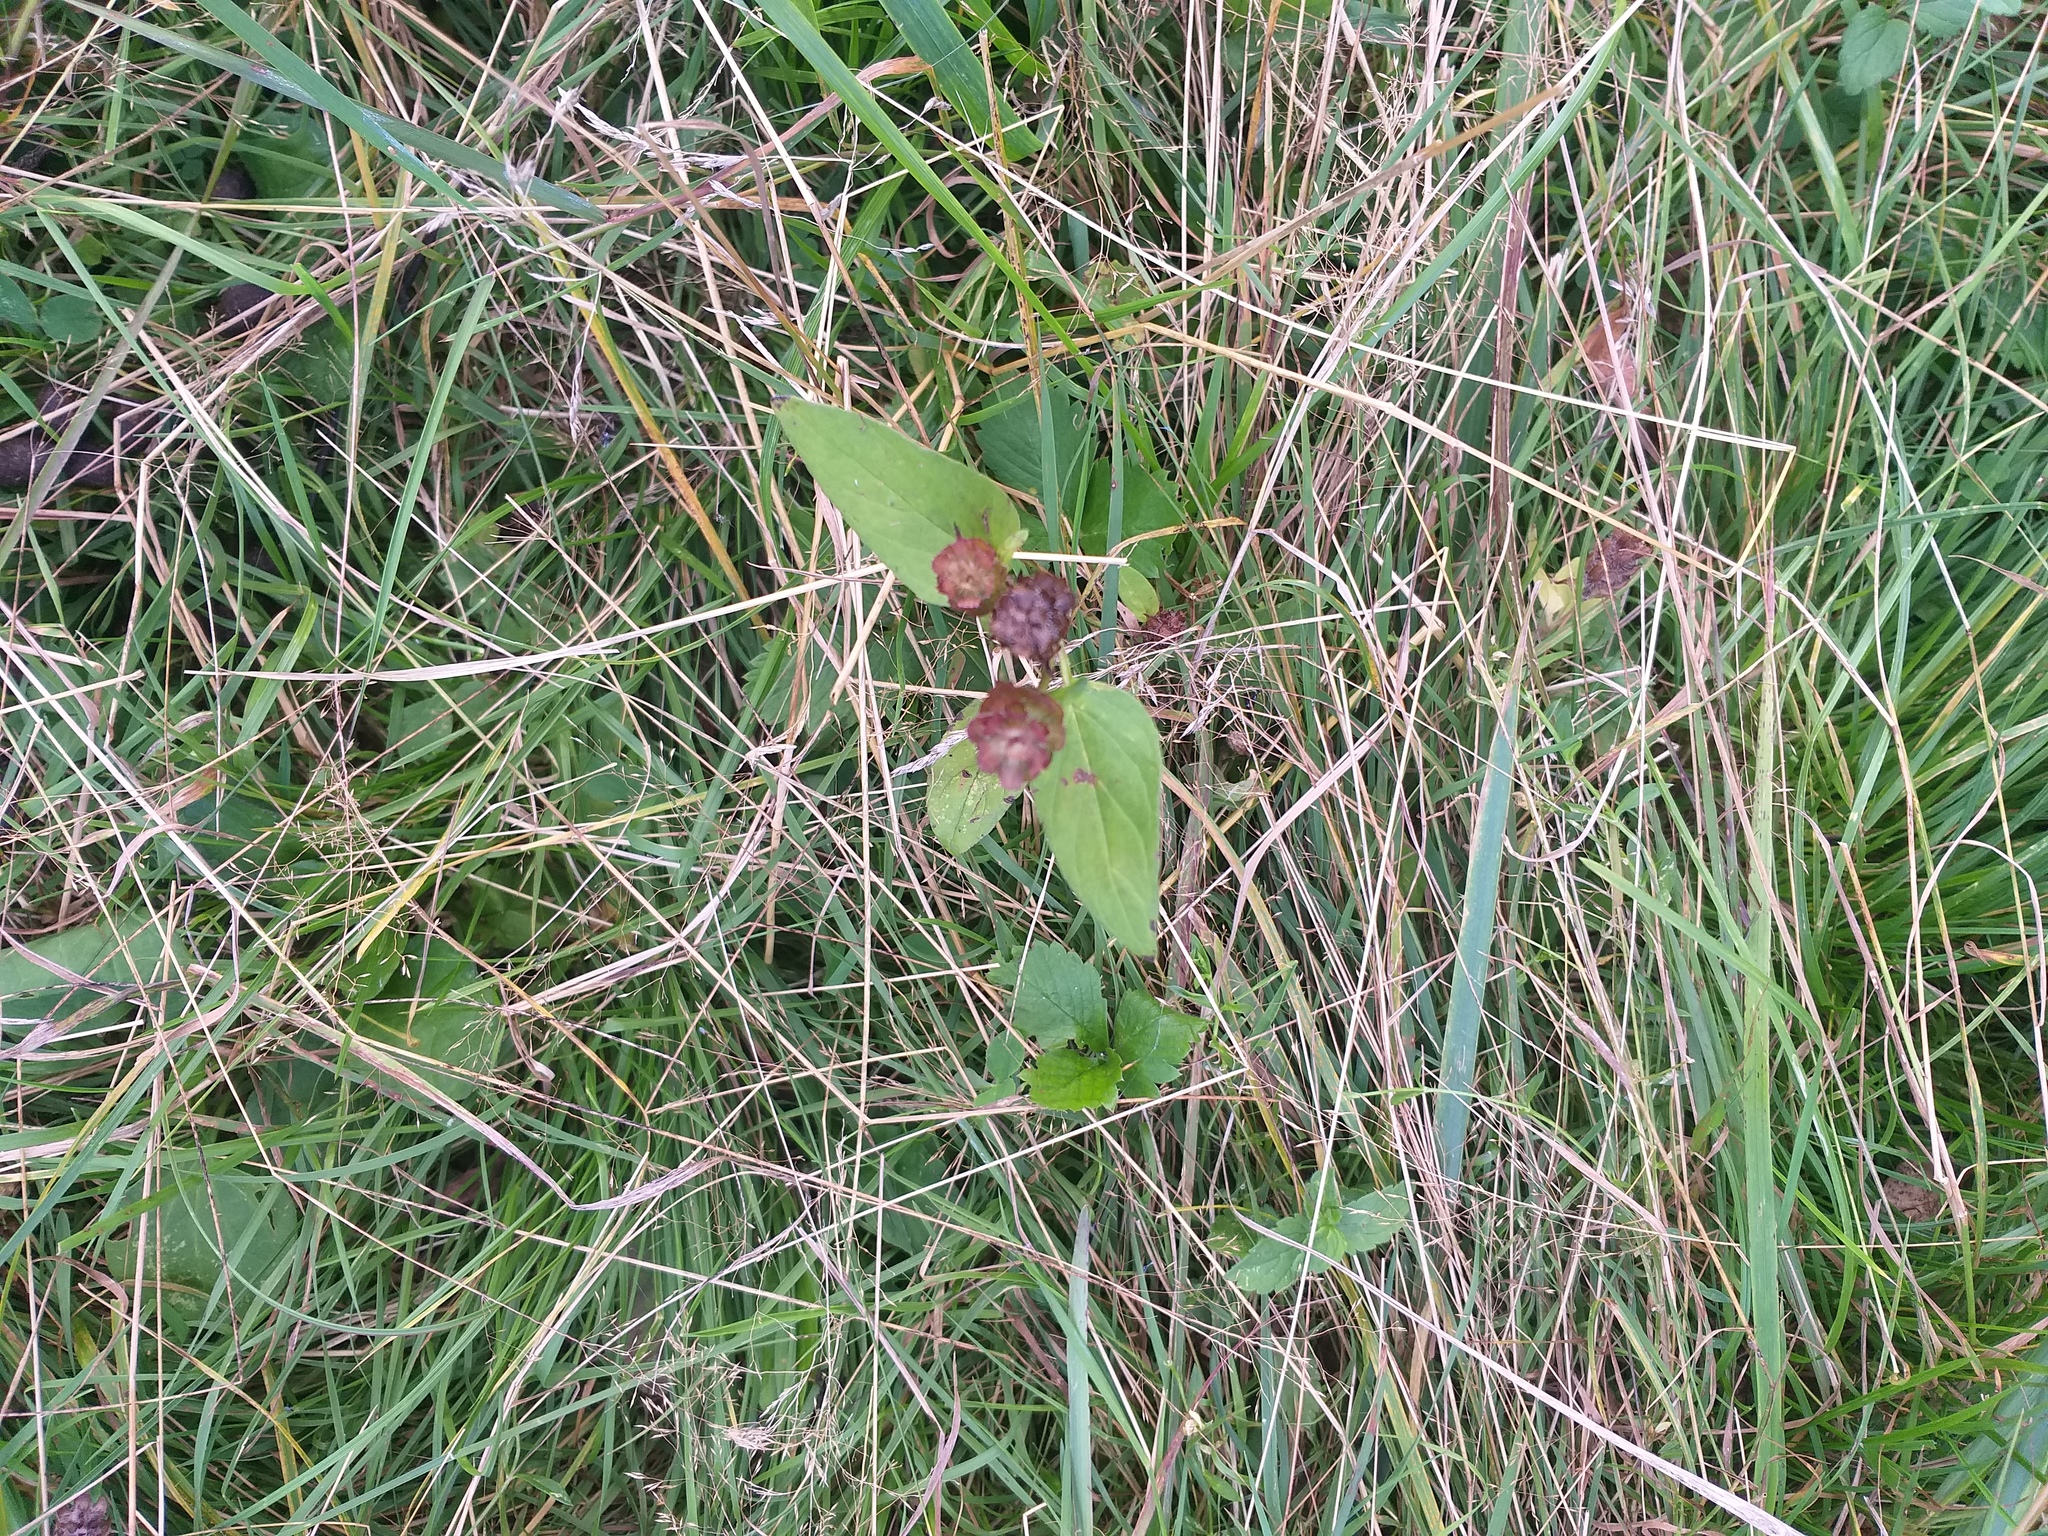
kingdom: Plantae
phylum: Tracheophyta
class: Magnoliopsida
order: Lamiales
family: Lamiaceae
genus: Prunella
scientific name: Prunella vulgaris
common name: Heal-all
